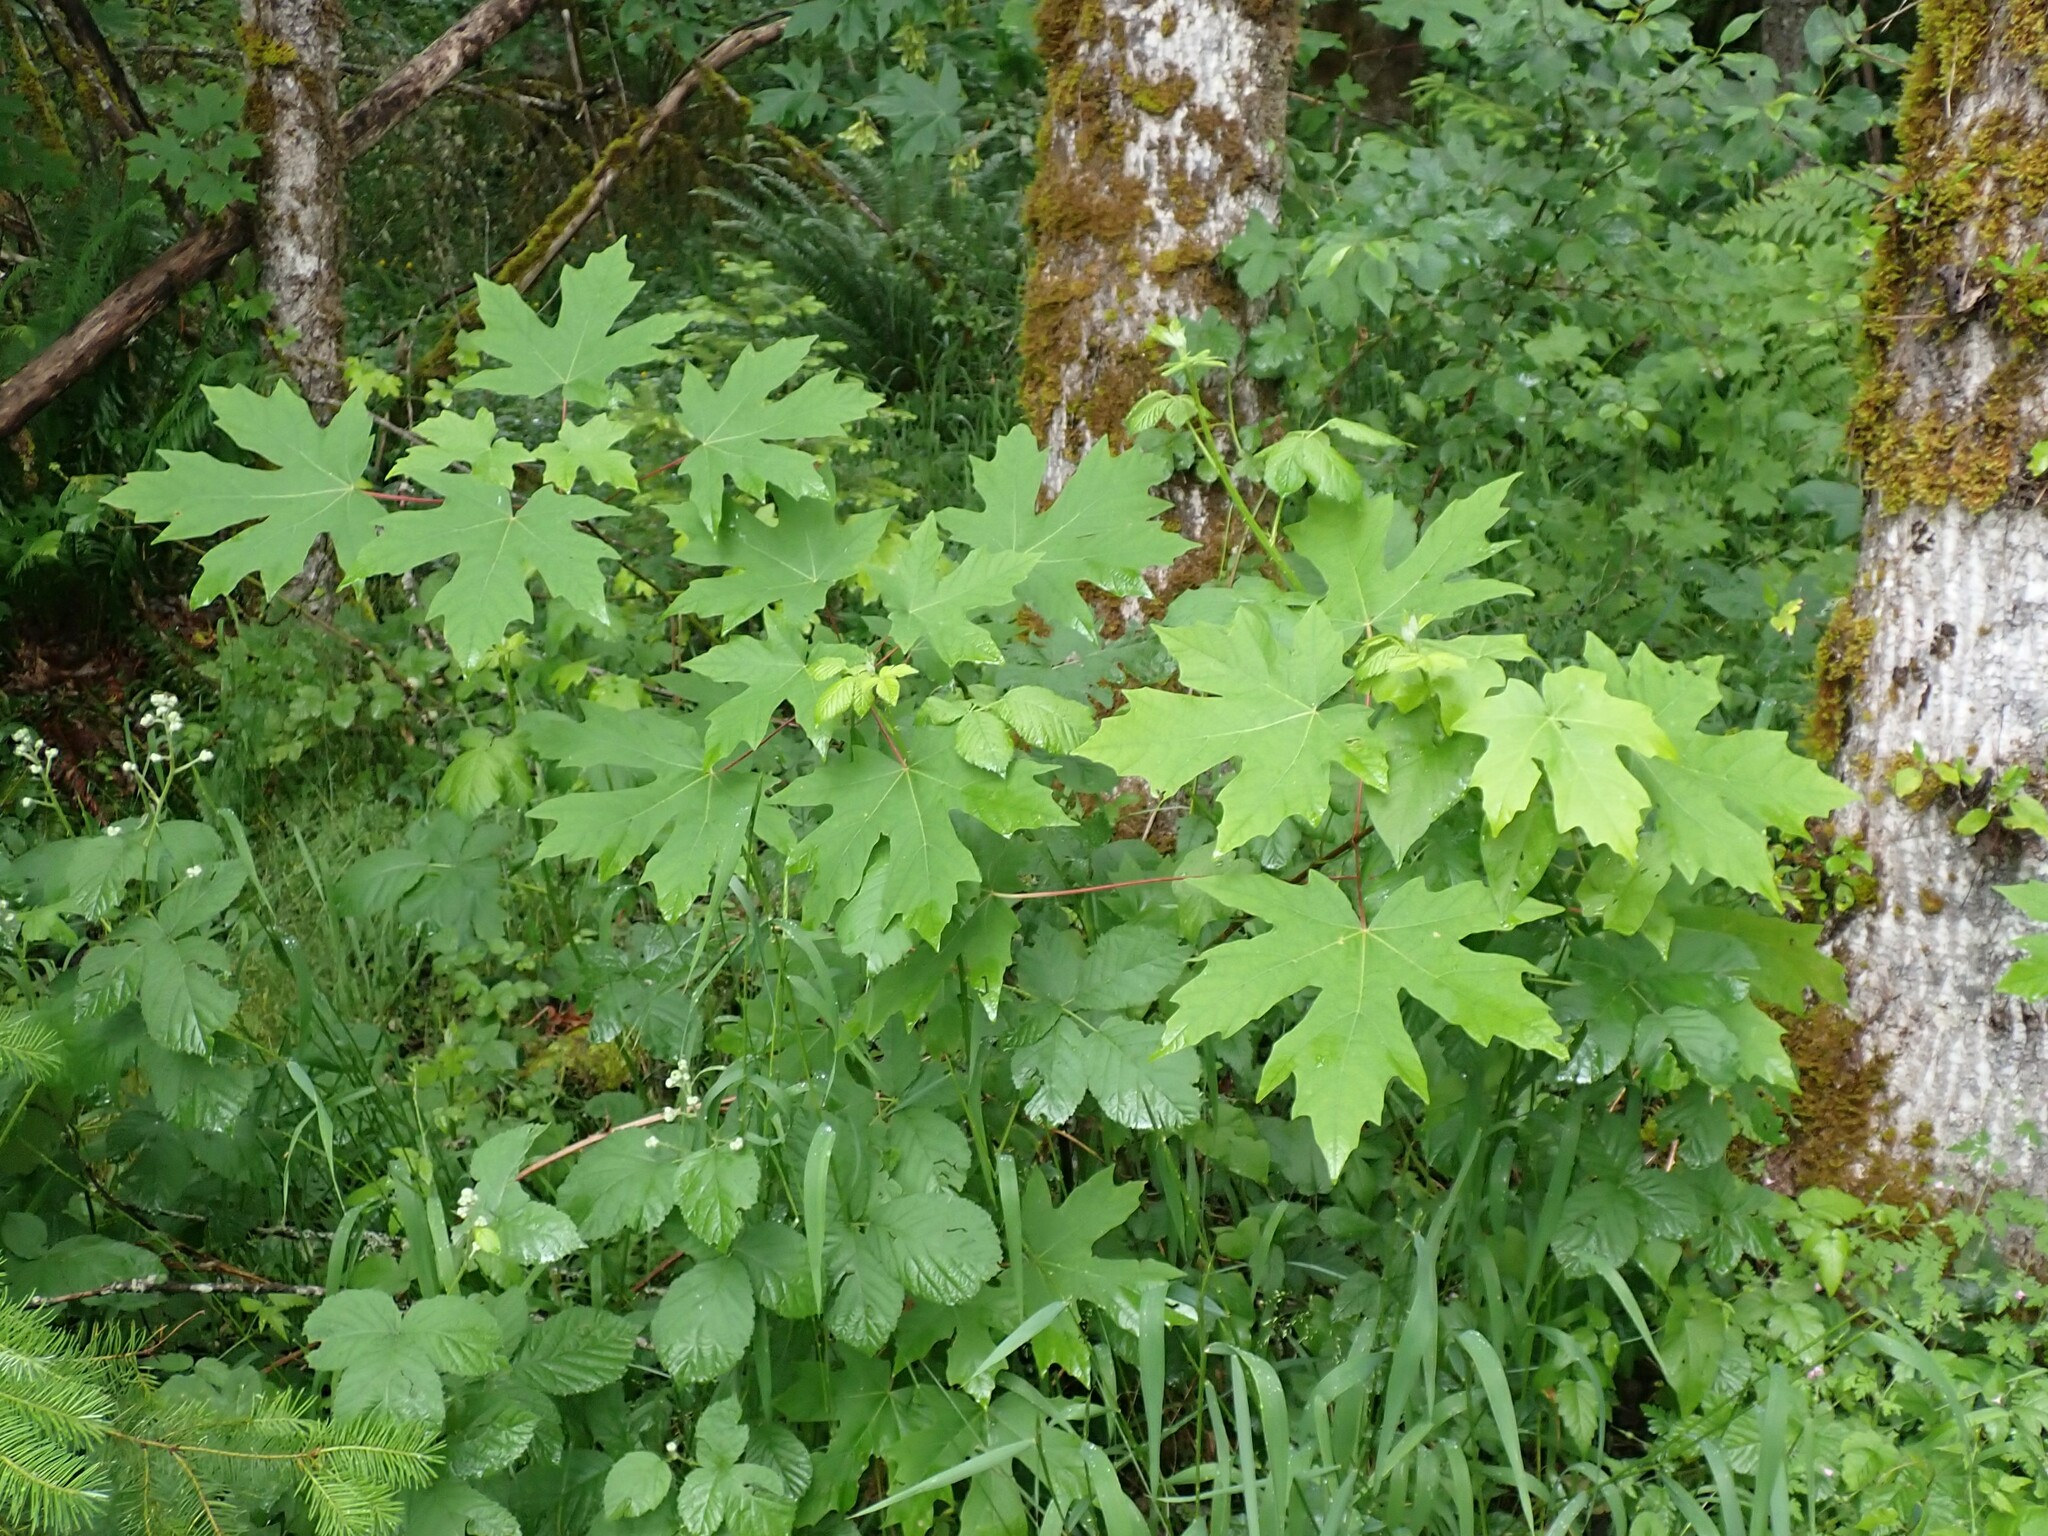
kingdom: Plantae
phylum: Tracheophyta
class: Magnoliopsida
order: Sapindales
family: Sapindaceae
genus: Acer
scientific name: Acer macrophyllum
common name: Oregon maple
